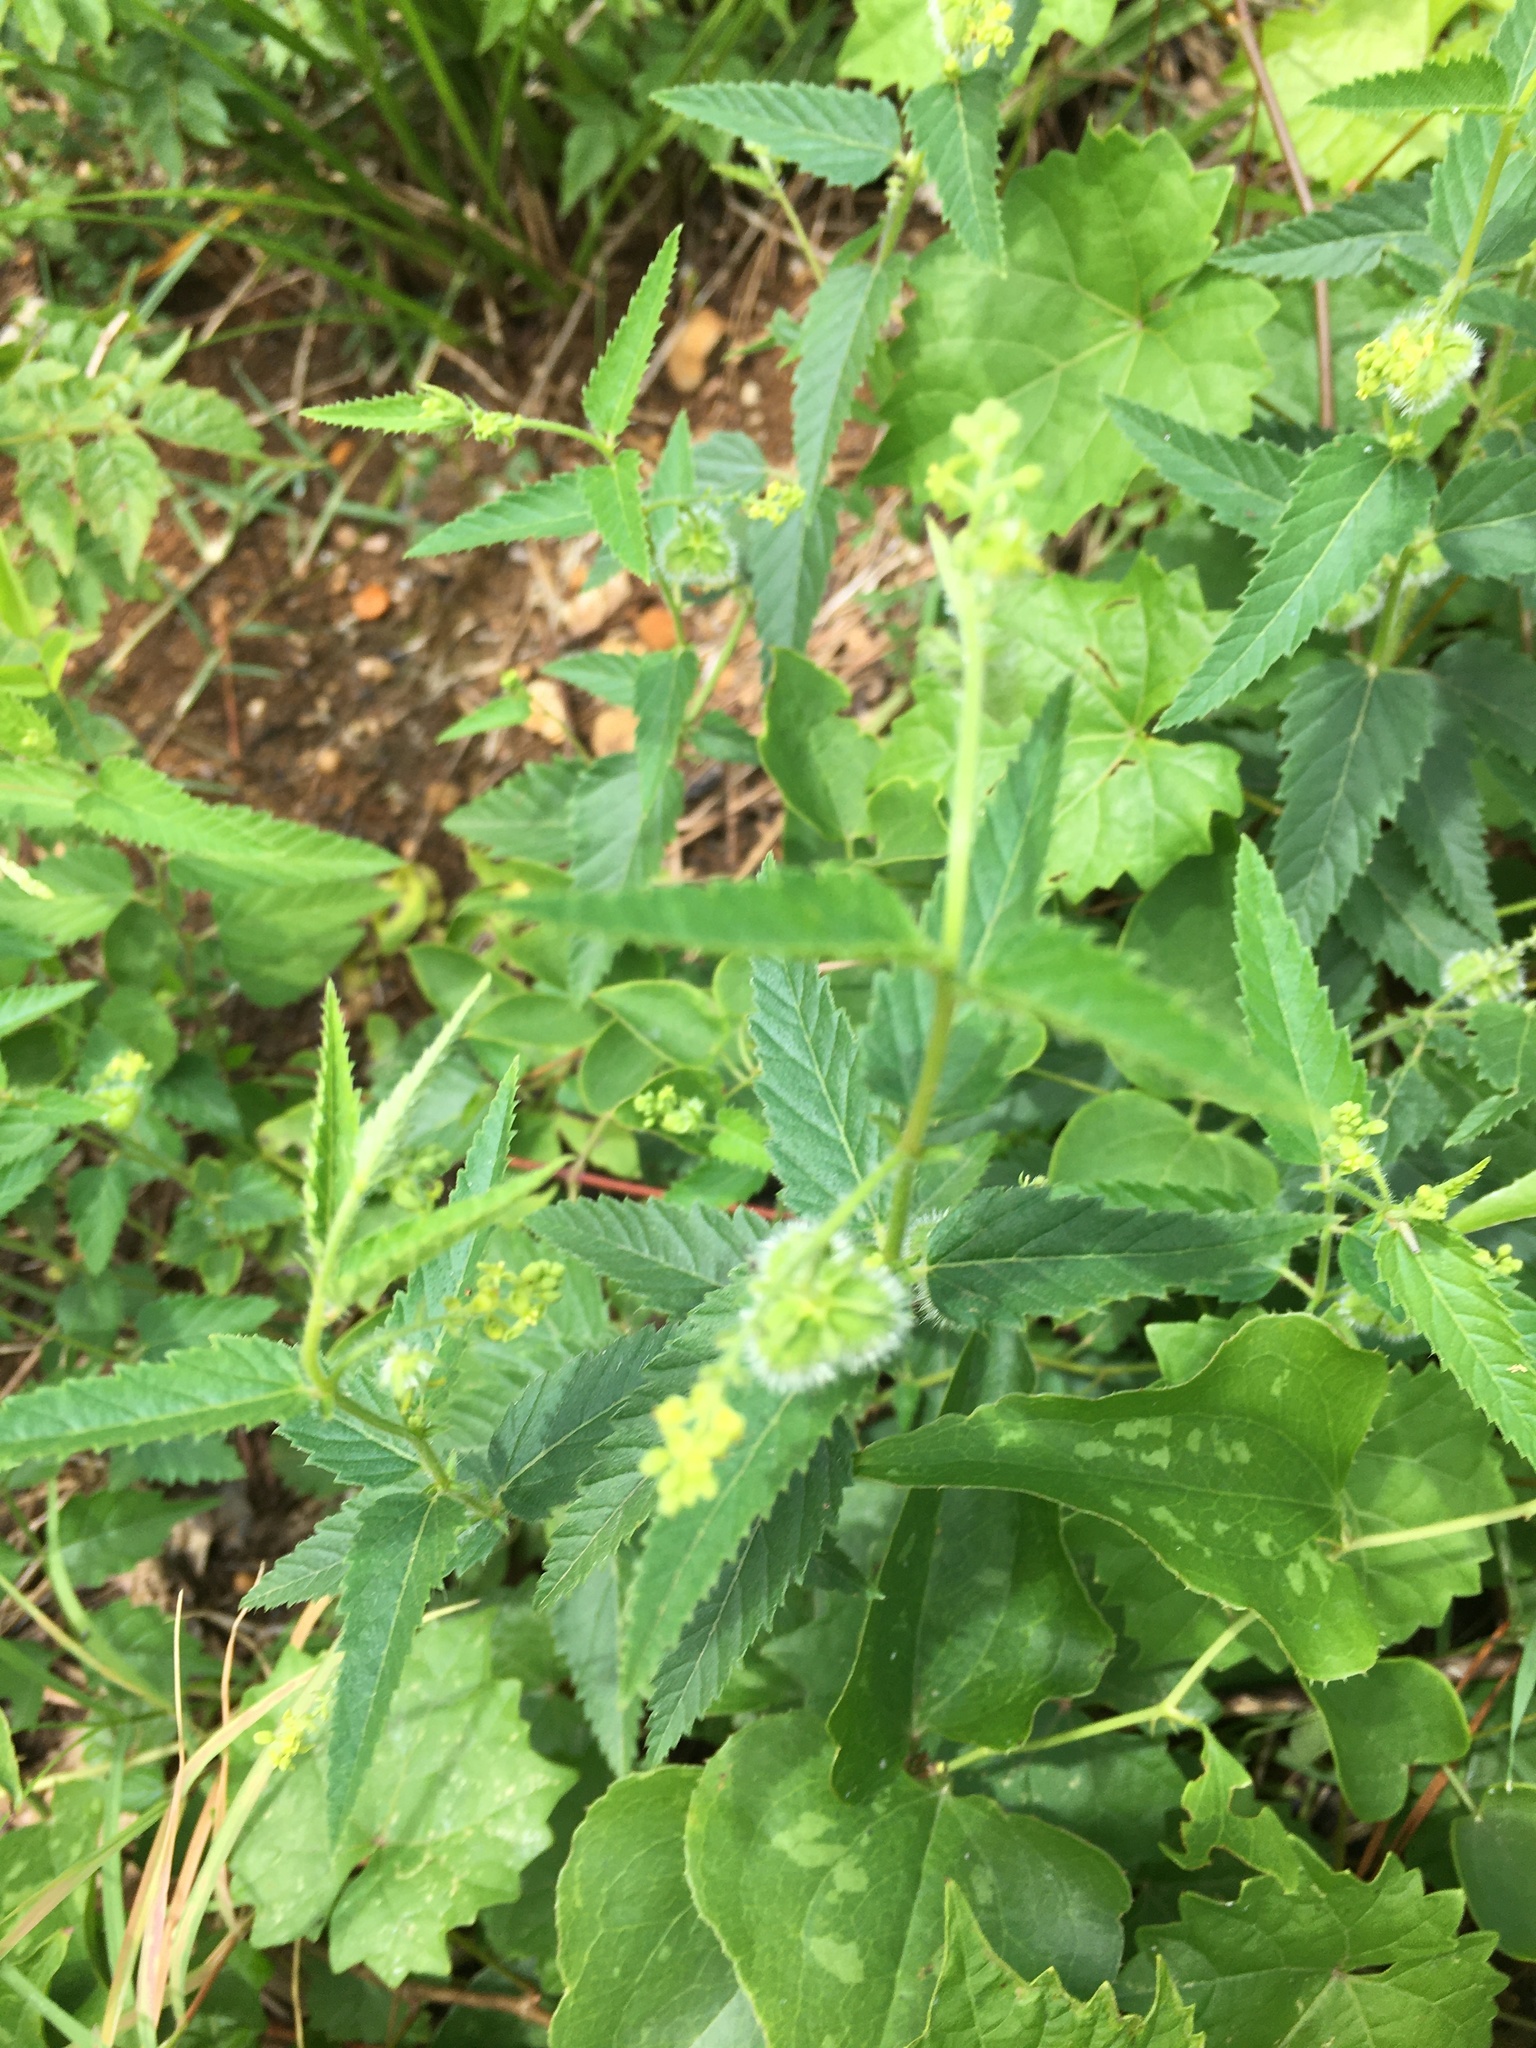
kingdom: Plantae
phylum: Tracheophyta
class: Magnoliopsida
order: Malpighiales
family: Euphorbiaceae
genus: Tragia
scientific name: Tragia urticifolia
